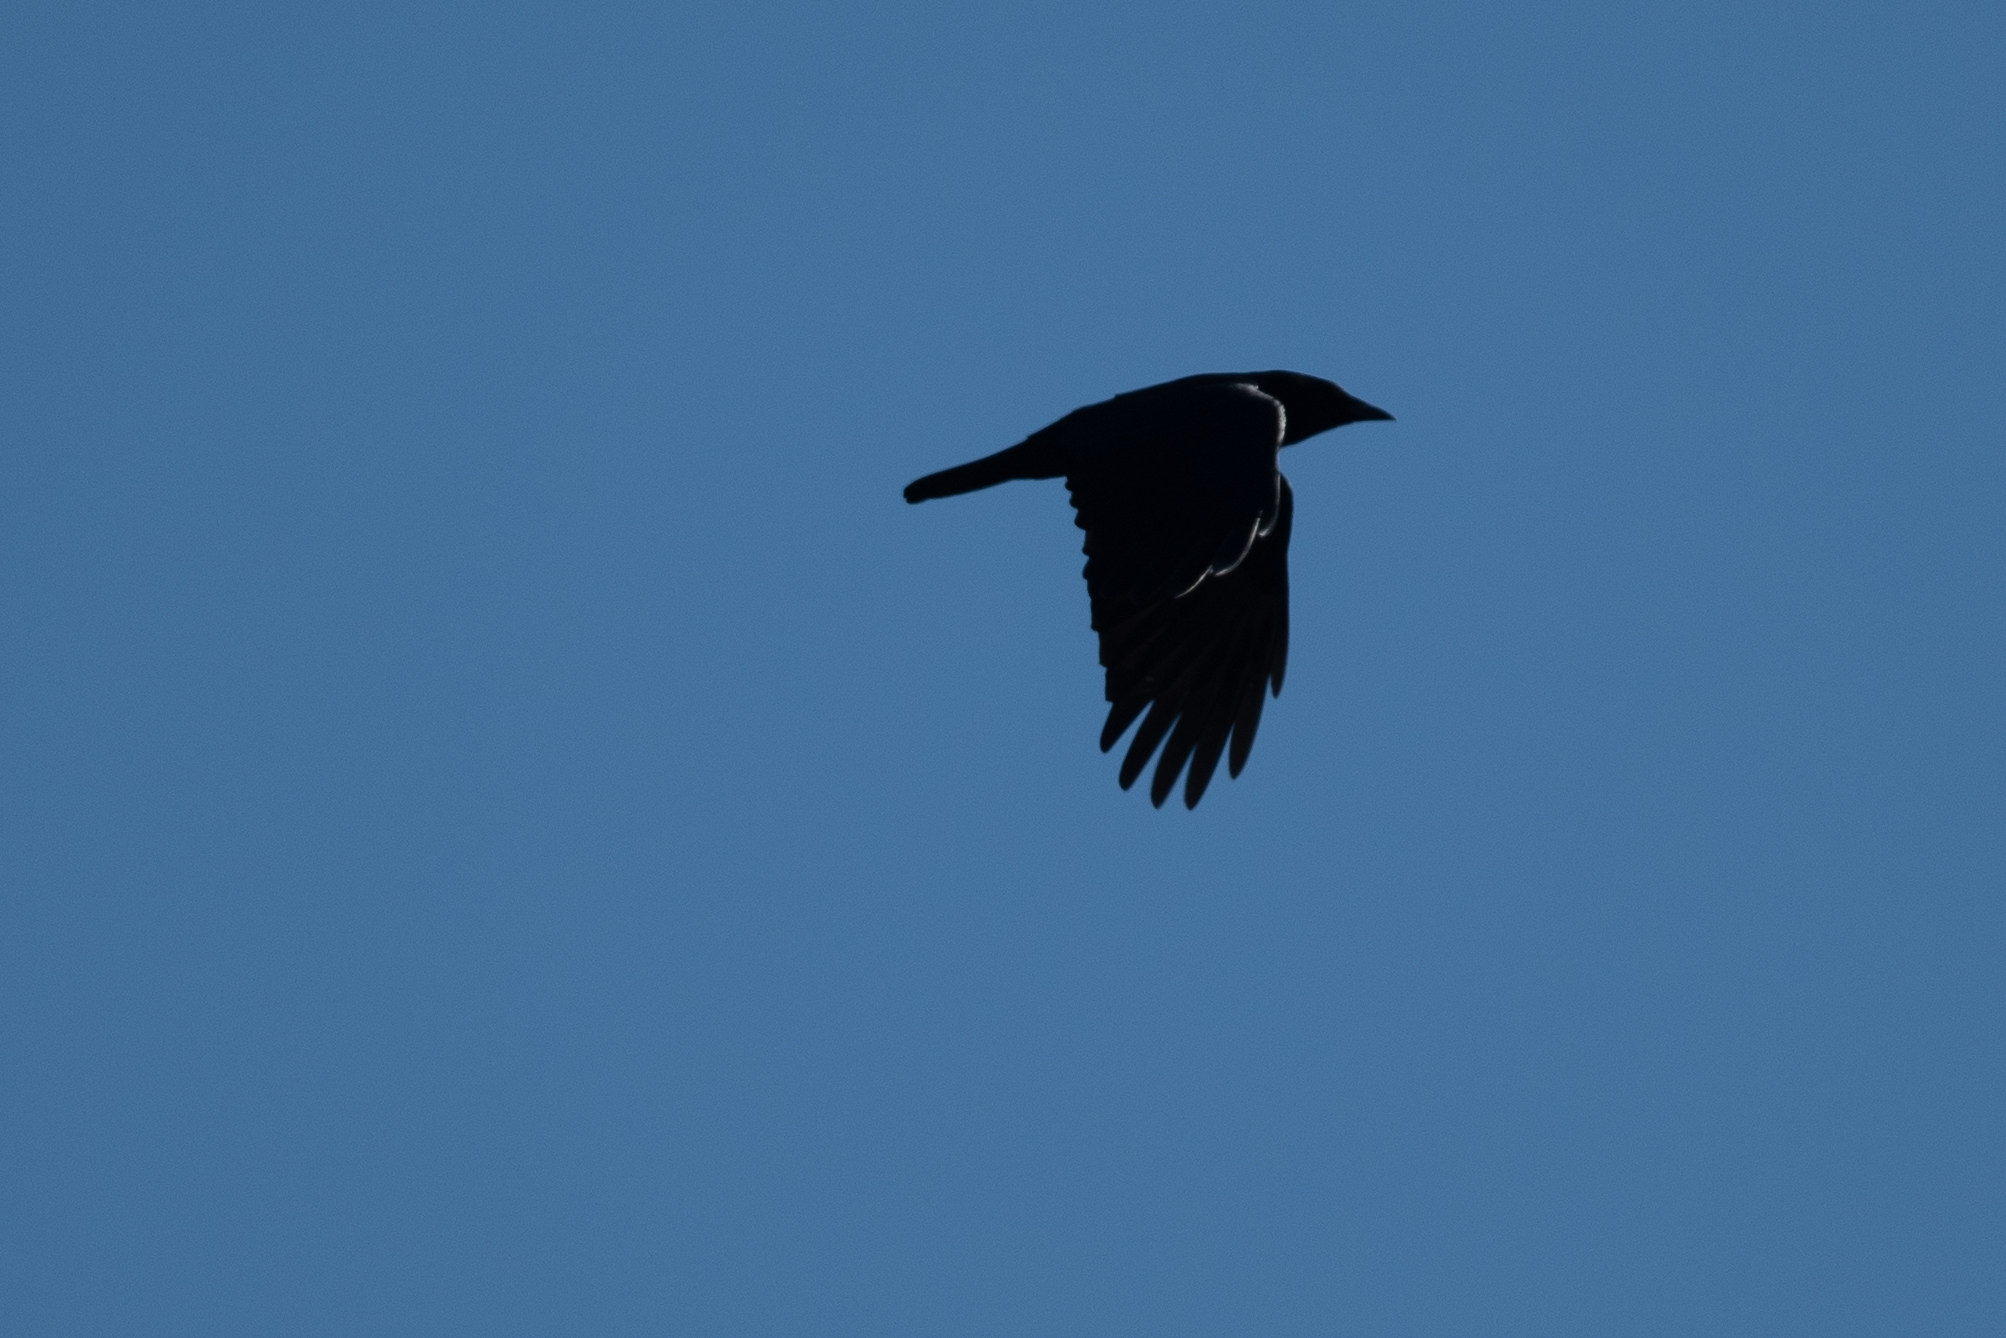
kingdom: Animalia
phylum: Chordata
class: Aves
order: Passeriformes
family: Corvidae
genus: Corvus
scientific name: Corvus brachyrhynchos
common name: American crow
